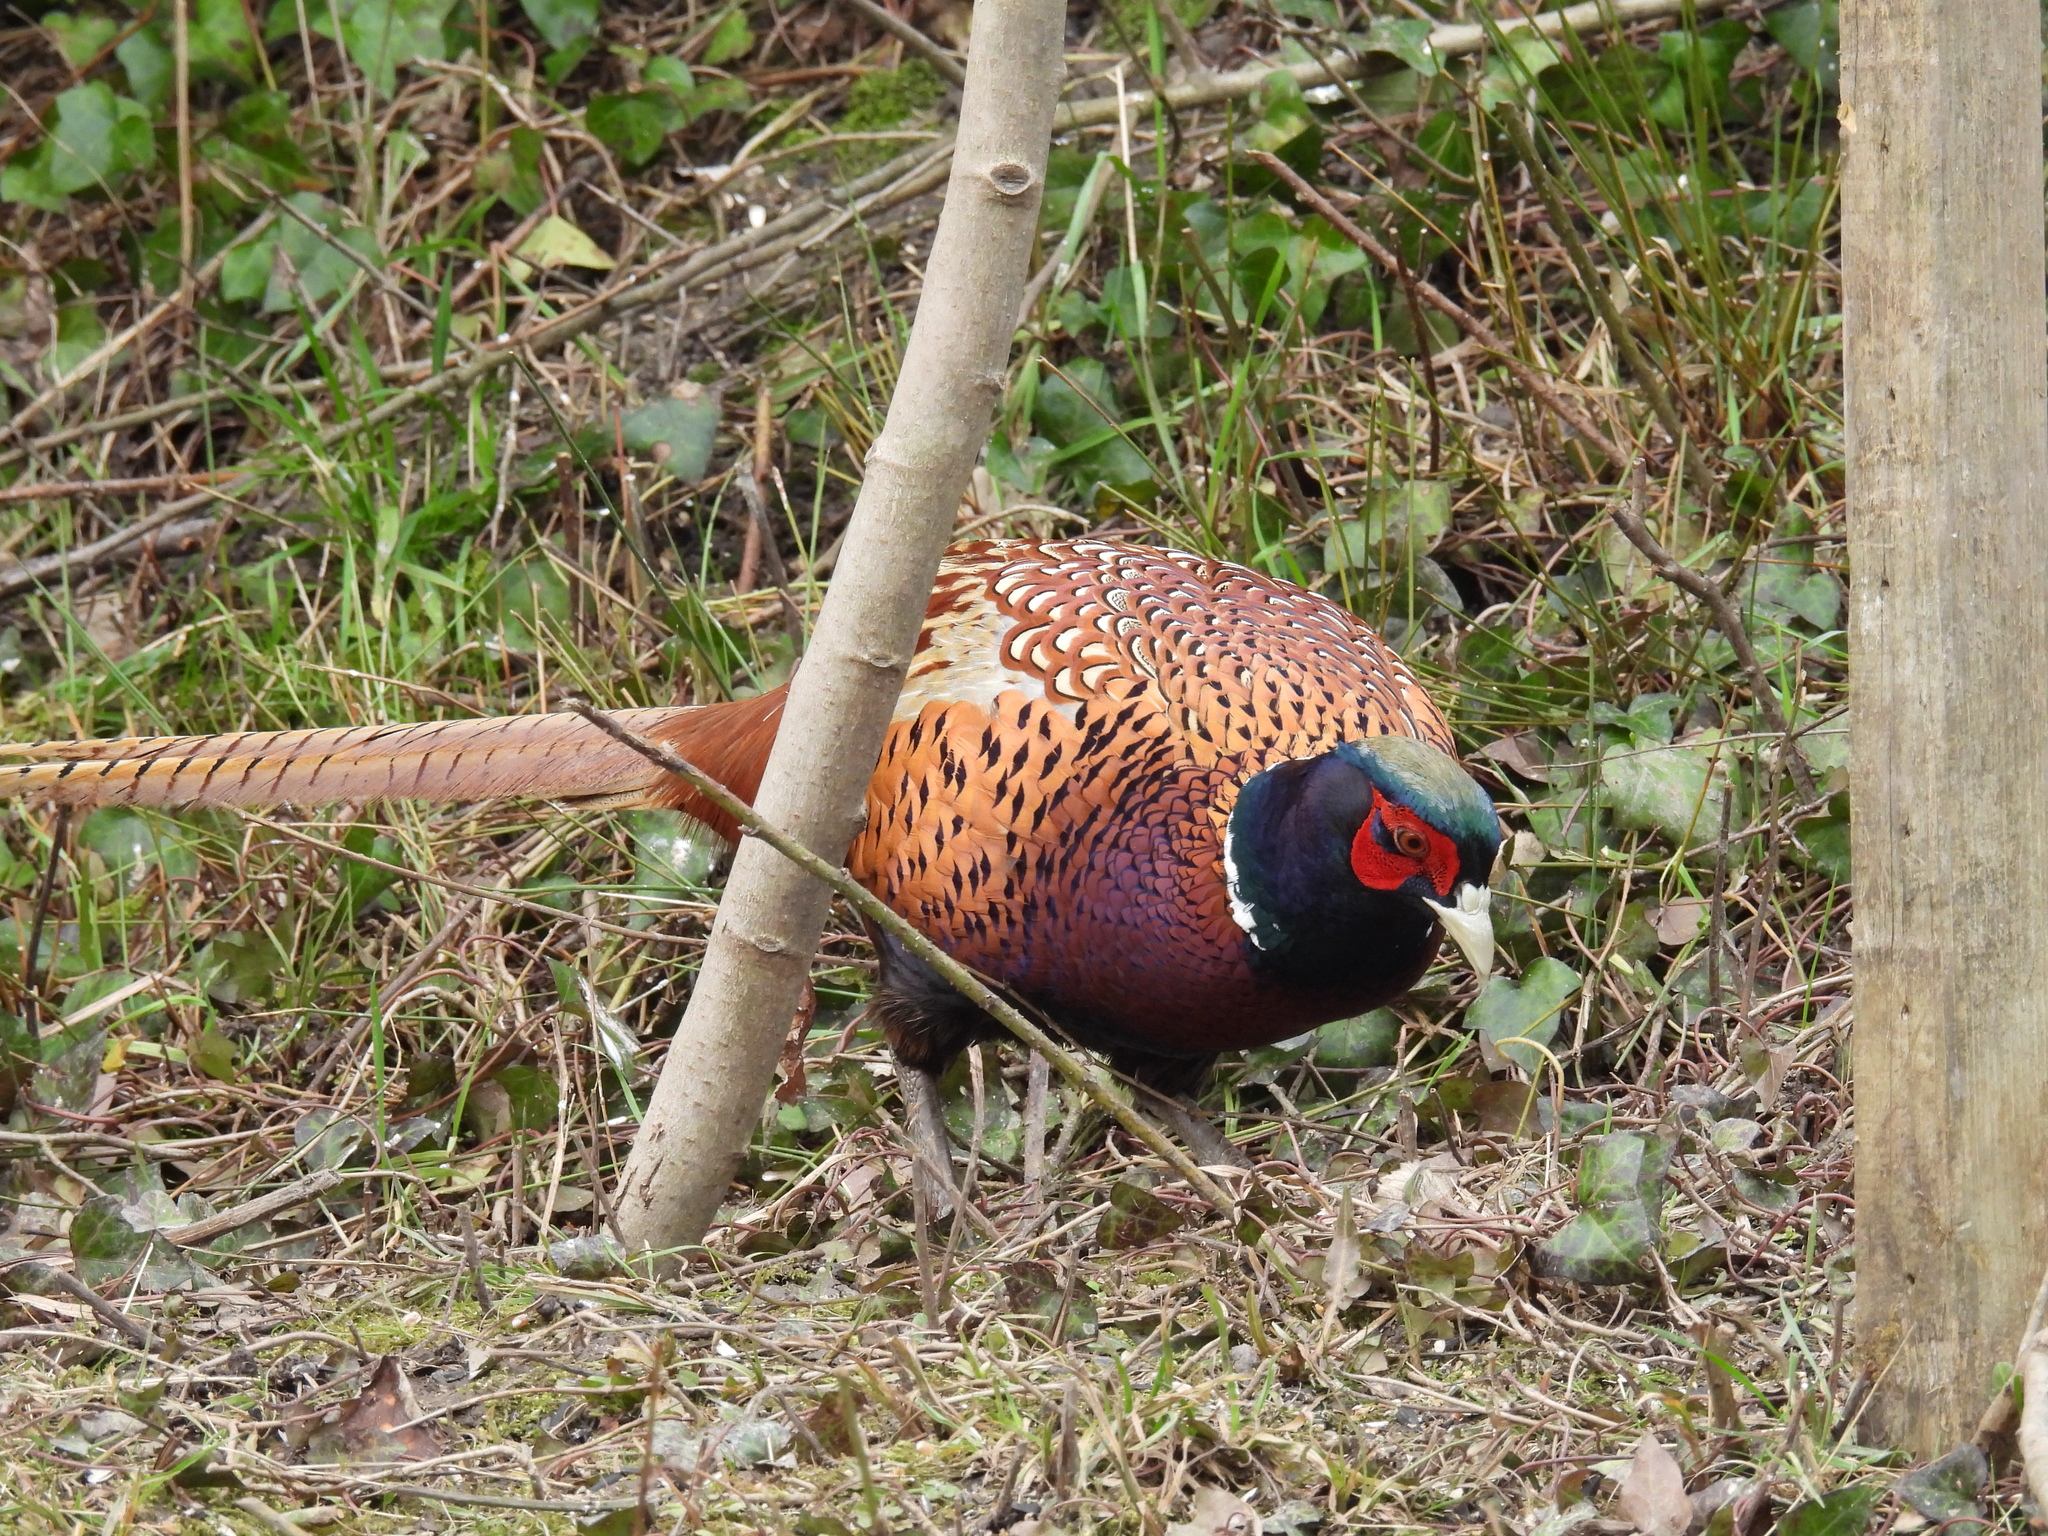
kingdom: Animalia
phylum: Chordata
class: Aves
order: Galliformes
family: Phasianidae
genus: Phasianus
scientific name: Phasianus colchicus
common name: Common pheasant
